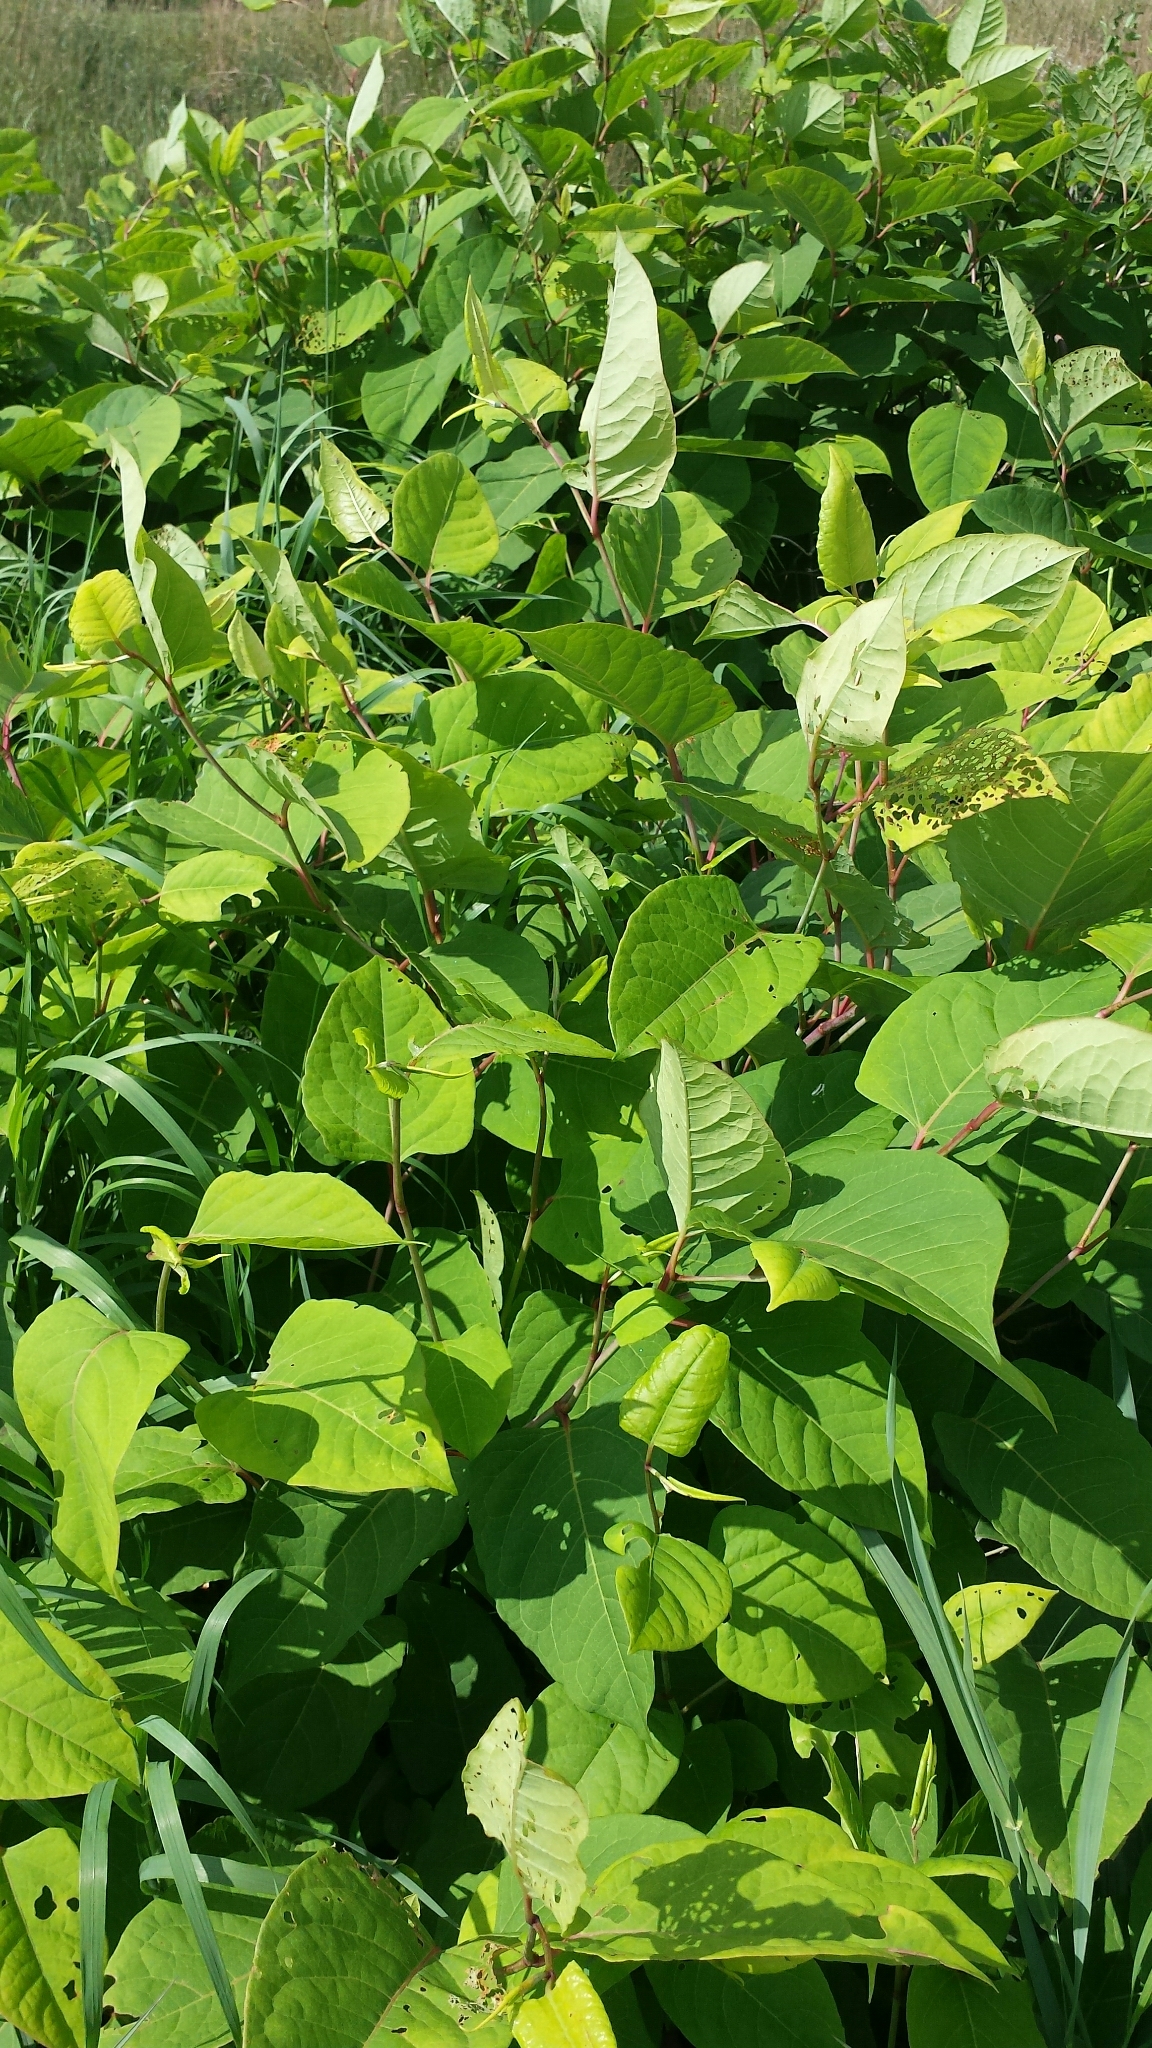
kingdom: Plantae
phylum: Tracheophyta
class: Magnoliopsida
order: Caryophyllales
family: Polygonaceae
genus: Reynoutria
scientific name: Reynoutria japonica
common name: Japanese knotweed
